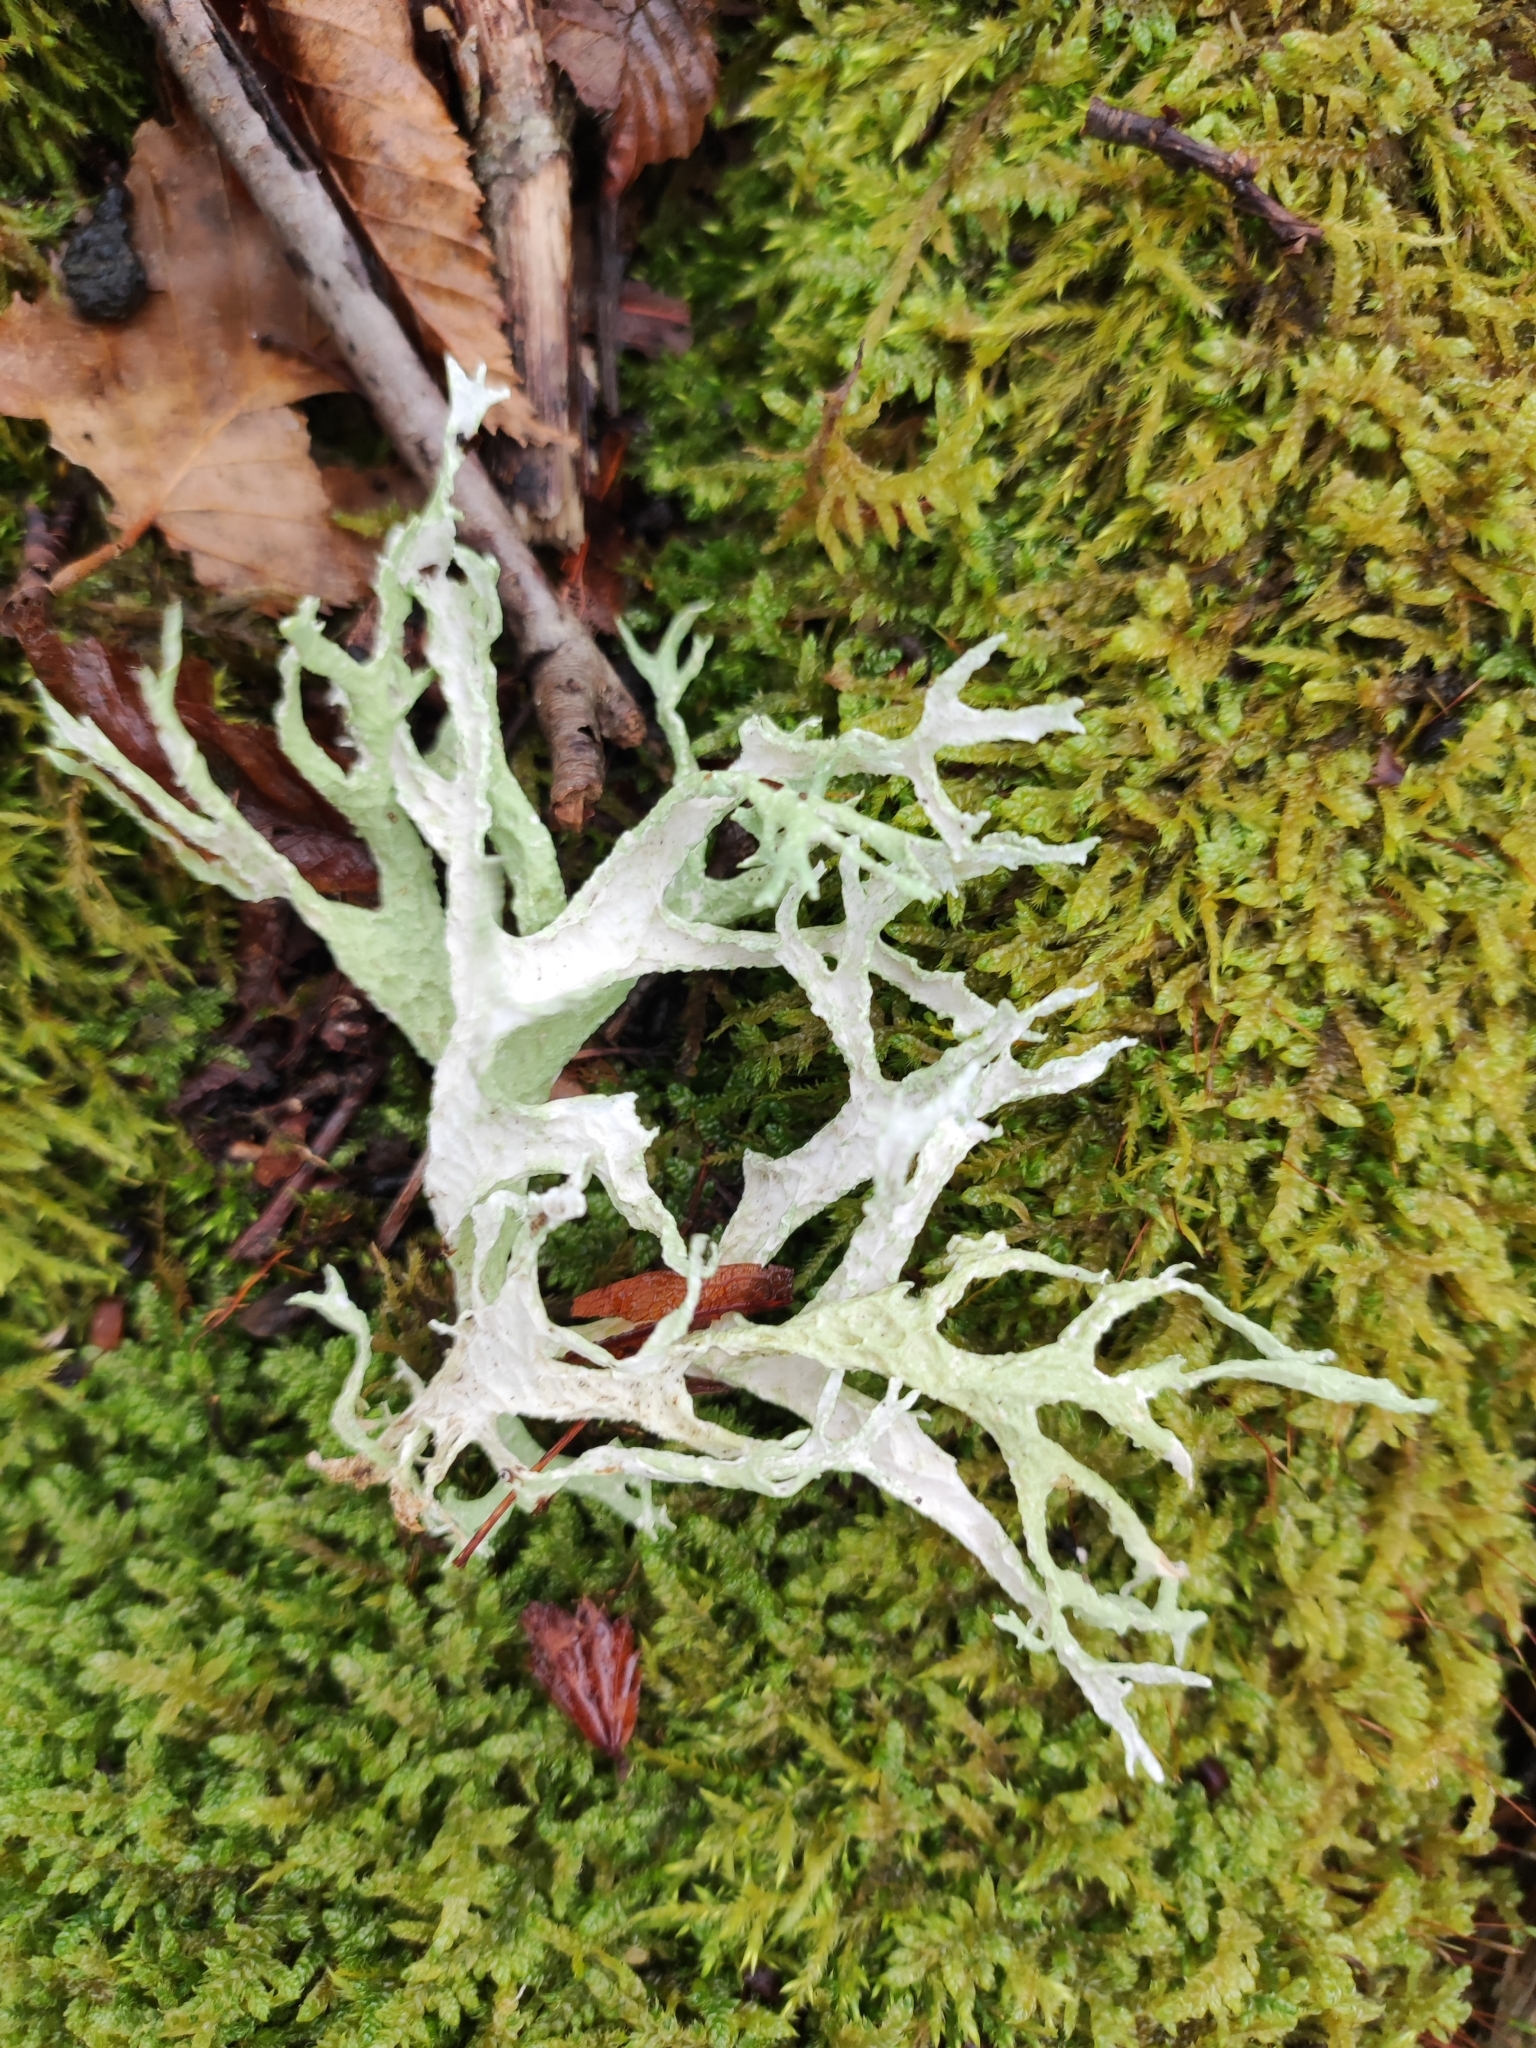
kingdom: Fungi
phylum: Ascomycota
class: Lecanoromycetes
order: Lecanorales
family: Parmeliaceae
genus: Evernia
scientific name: Evernia prunastri
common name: Oak moss
